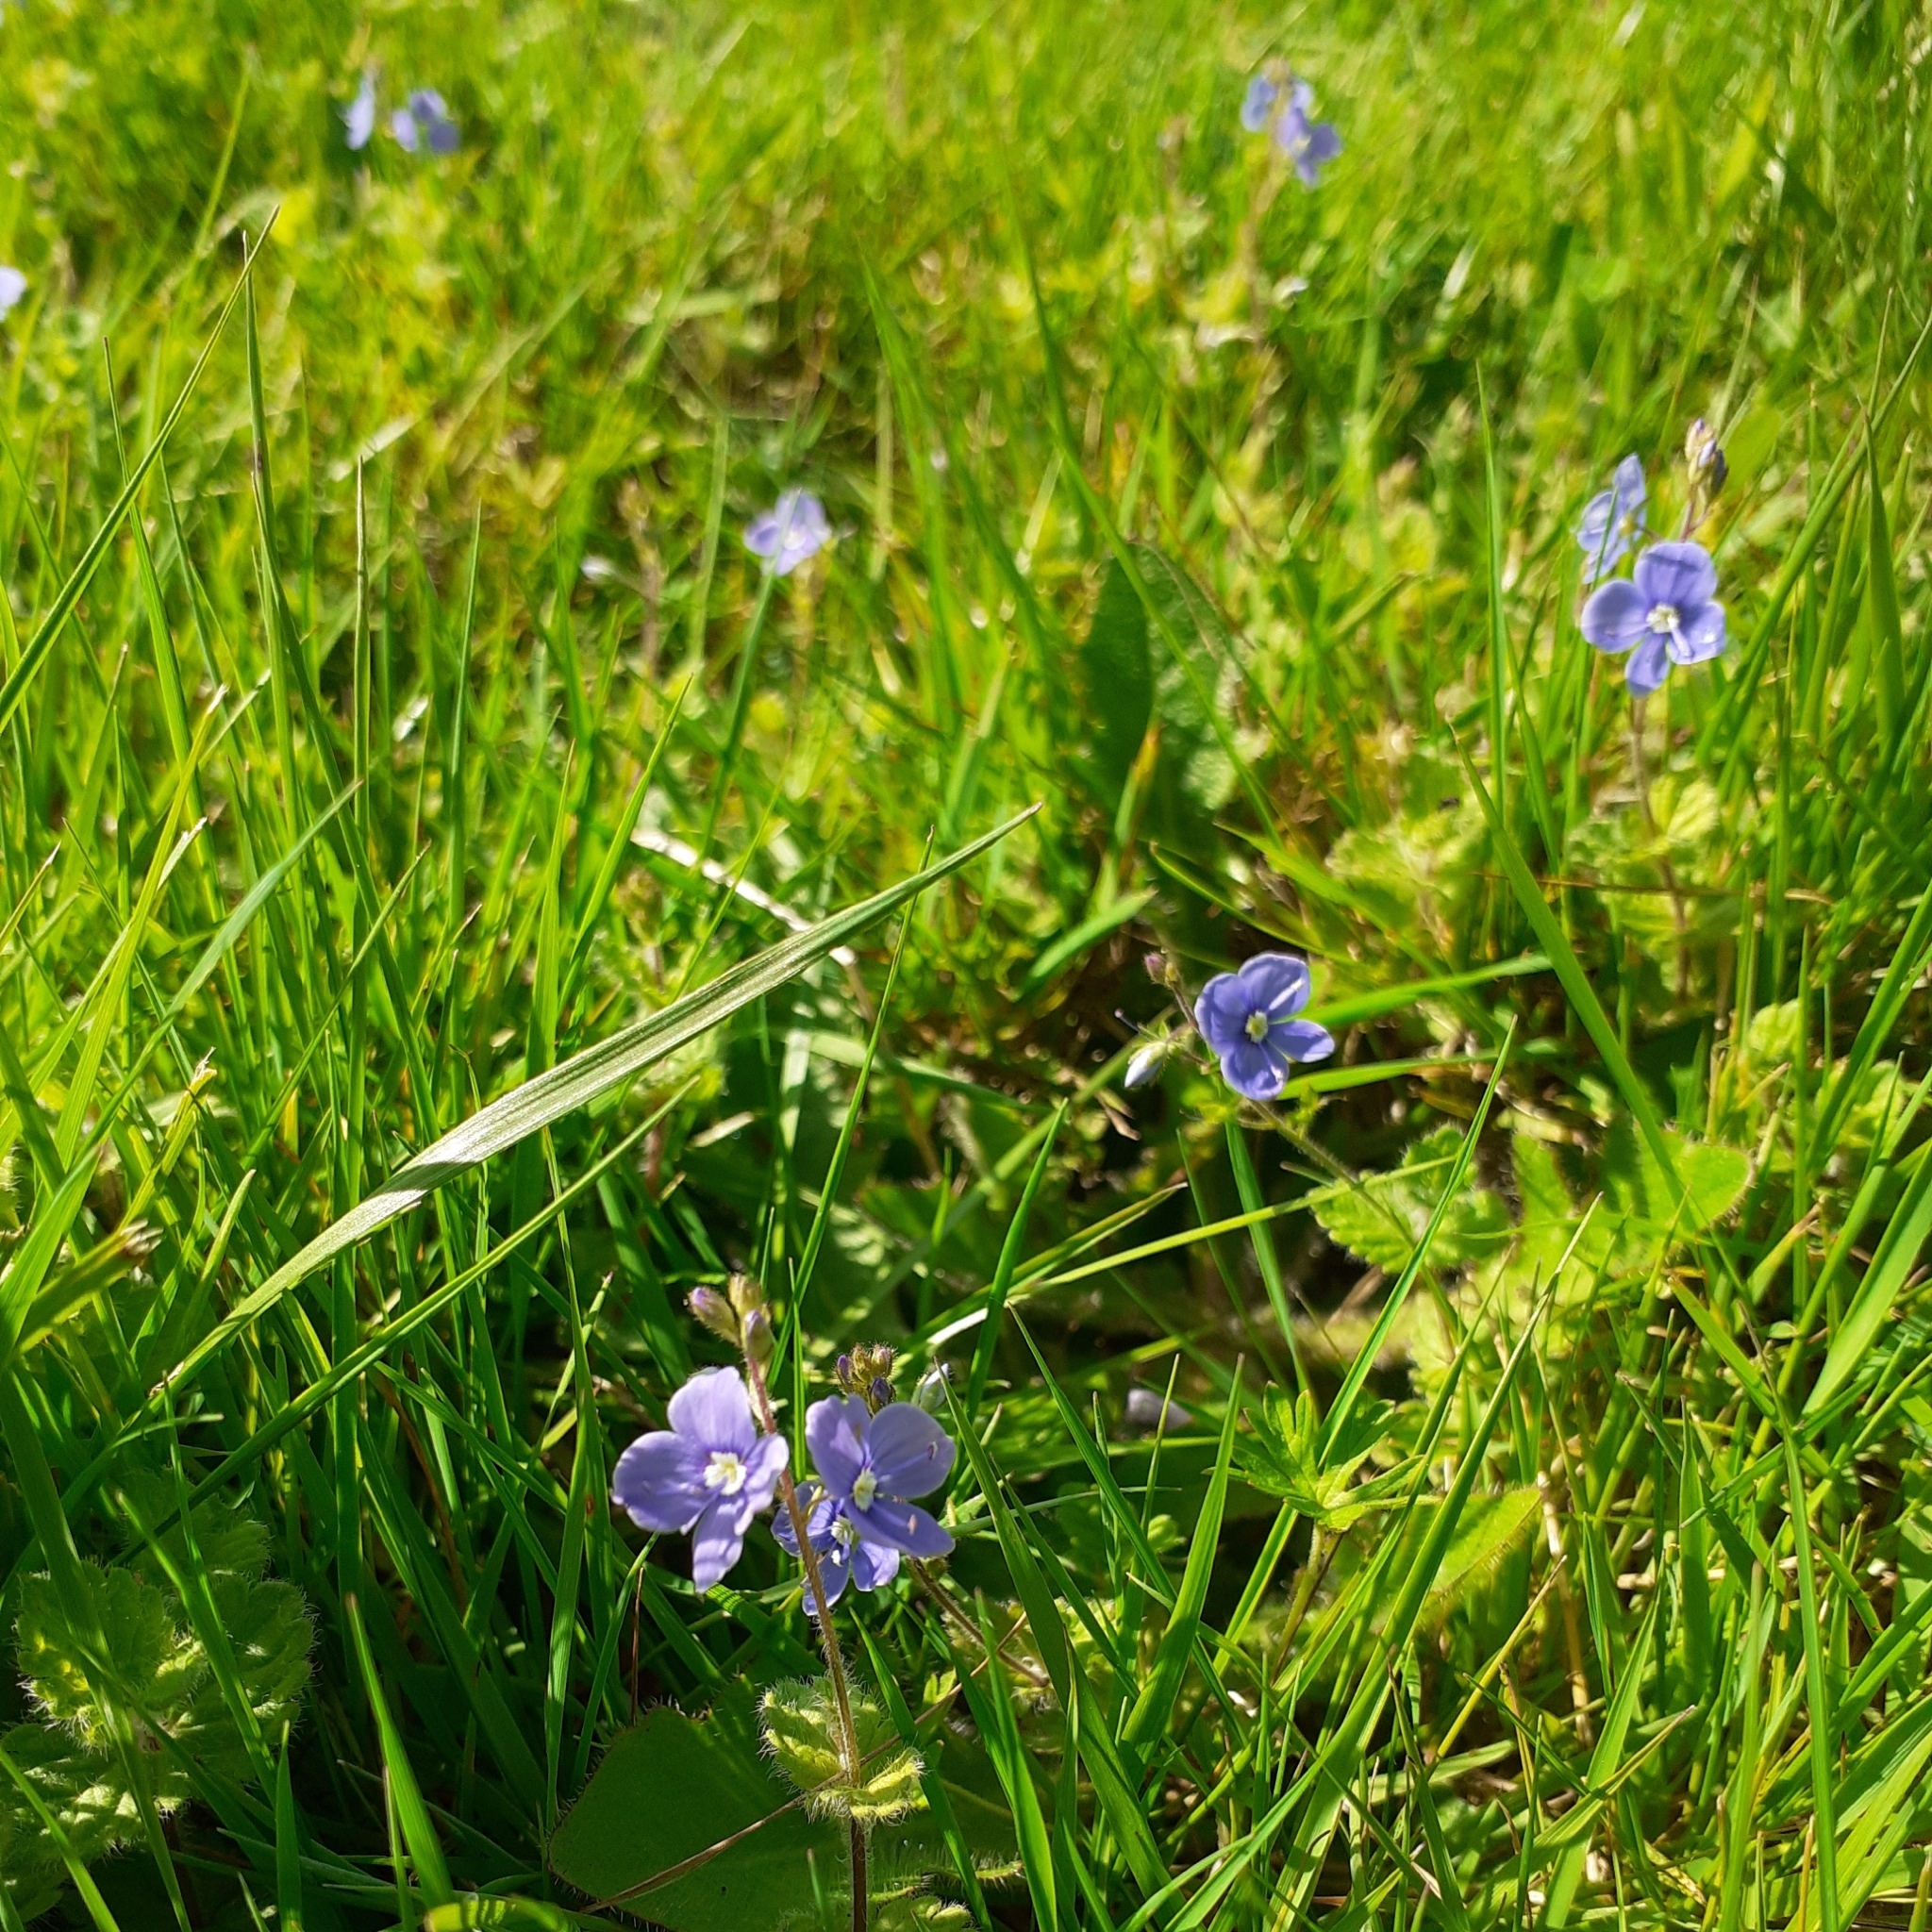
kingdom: Plantae
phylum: Tracheophyta
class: Magnoliopsida
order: Lamiales
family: Plantaginaceae
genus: Veronica
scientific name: Veronica chamaedrys
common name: Germander speedwell
